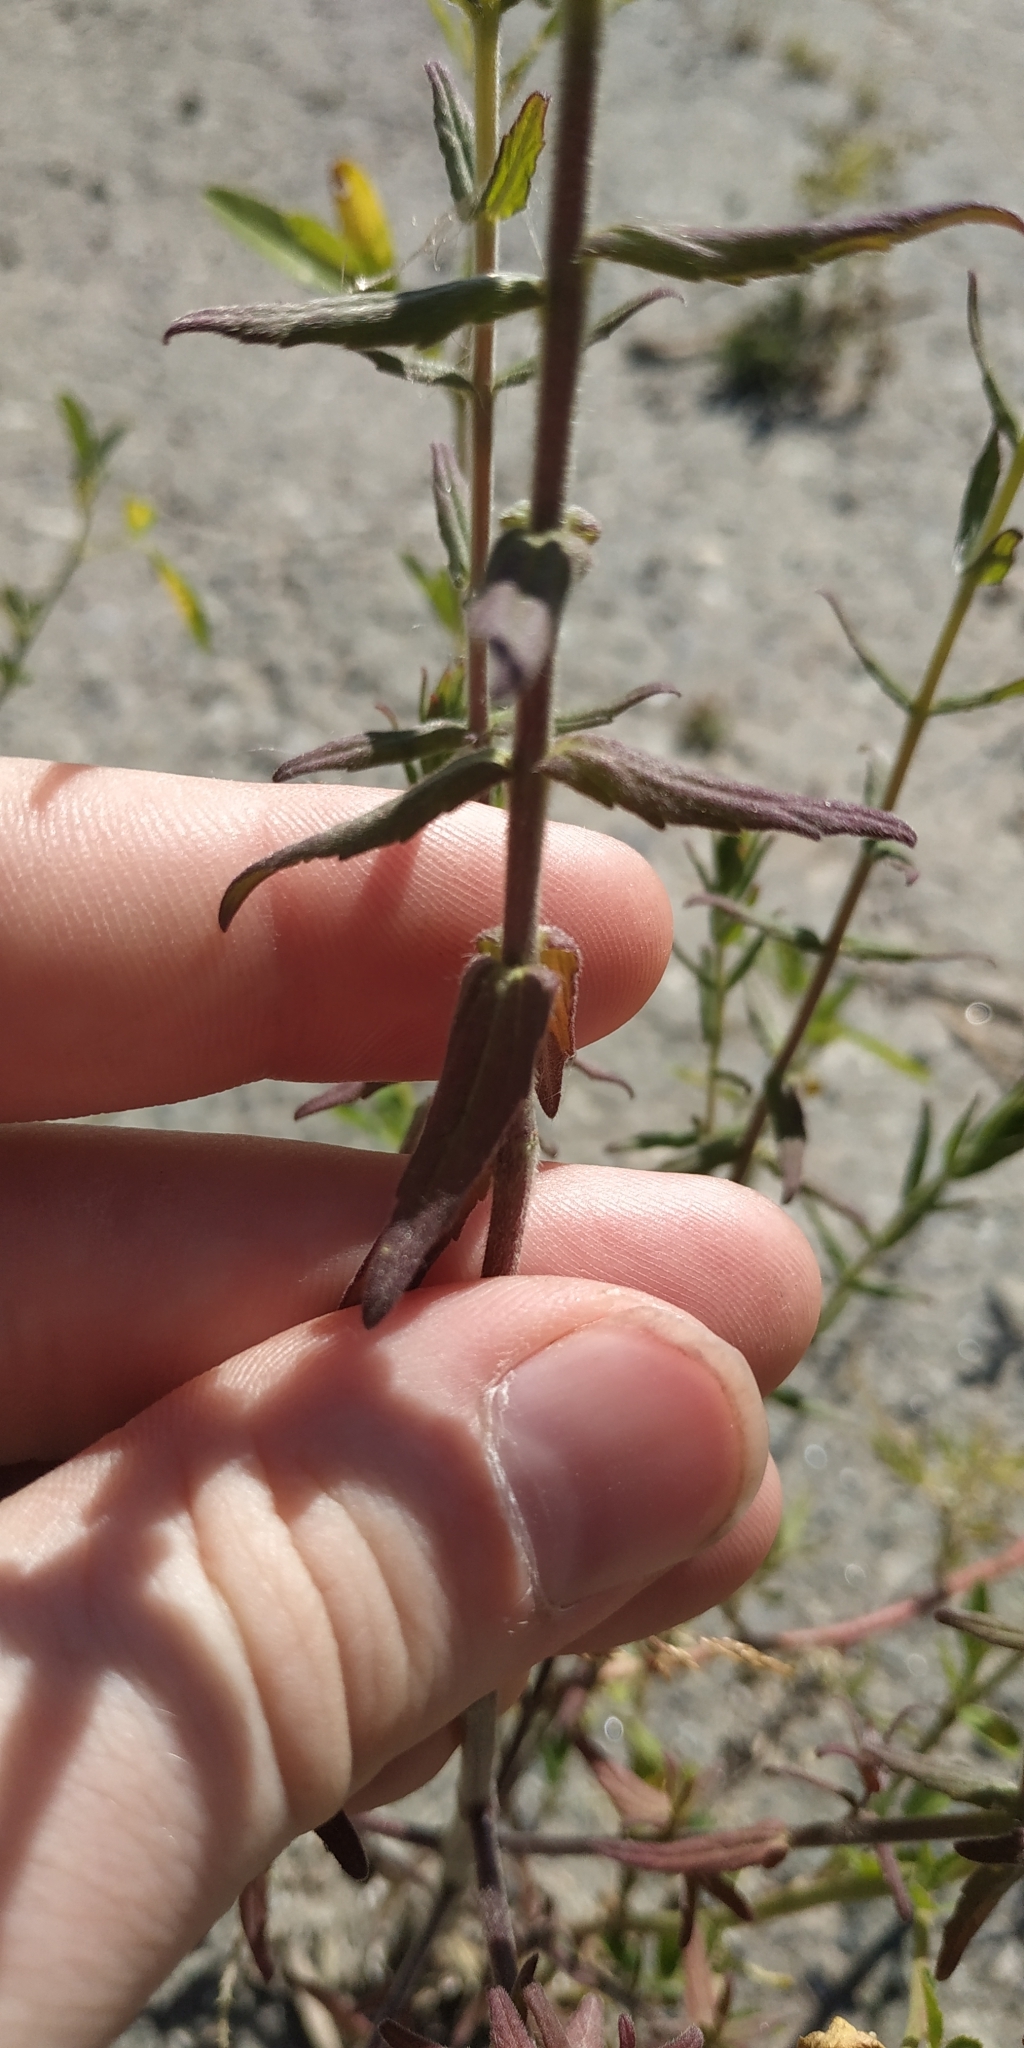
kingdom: Plantae
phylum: Tracheophyta
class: Magnoliopsida
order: Lamiales
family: Orobanchaceae
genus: Odontites
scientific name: Odontites vulgaris
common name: Broomrape
